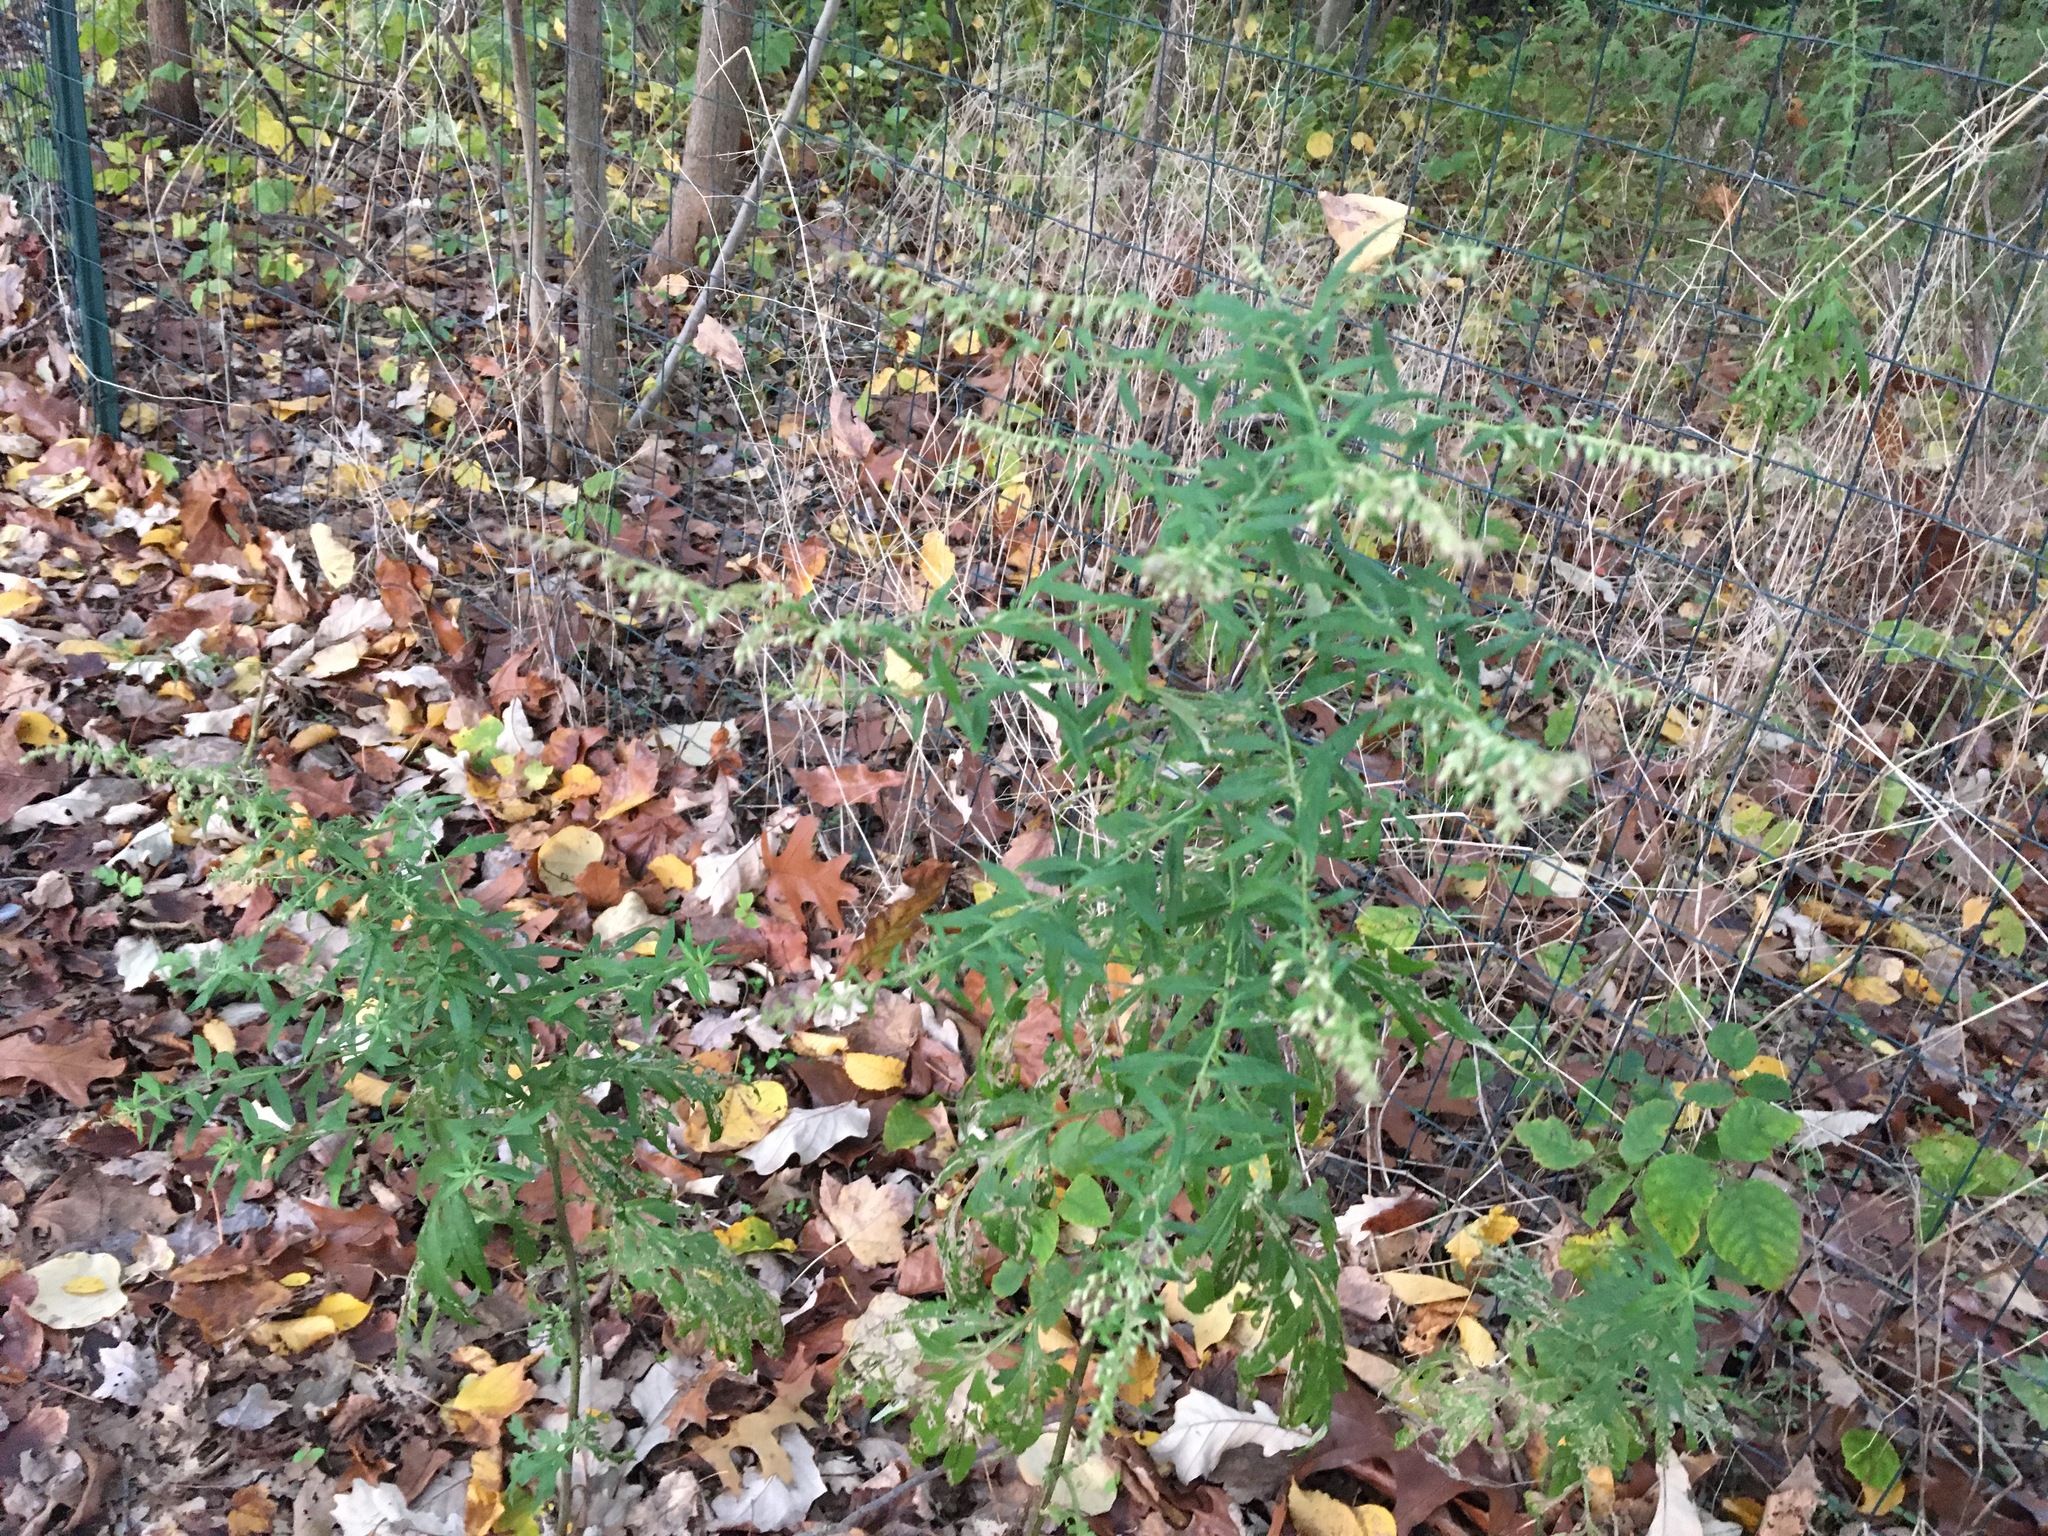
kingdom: Plantae
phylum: Tracheophyta
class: Magnoliopsida
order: Asterales
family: Asteraceae
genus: Artemisia
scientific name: Artemisia vulgaris
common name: Mugwort
